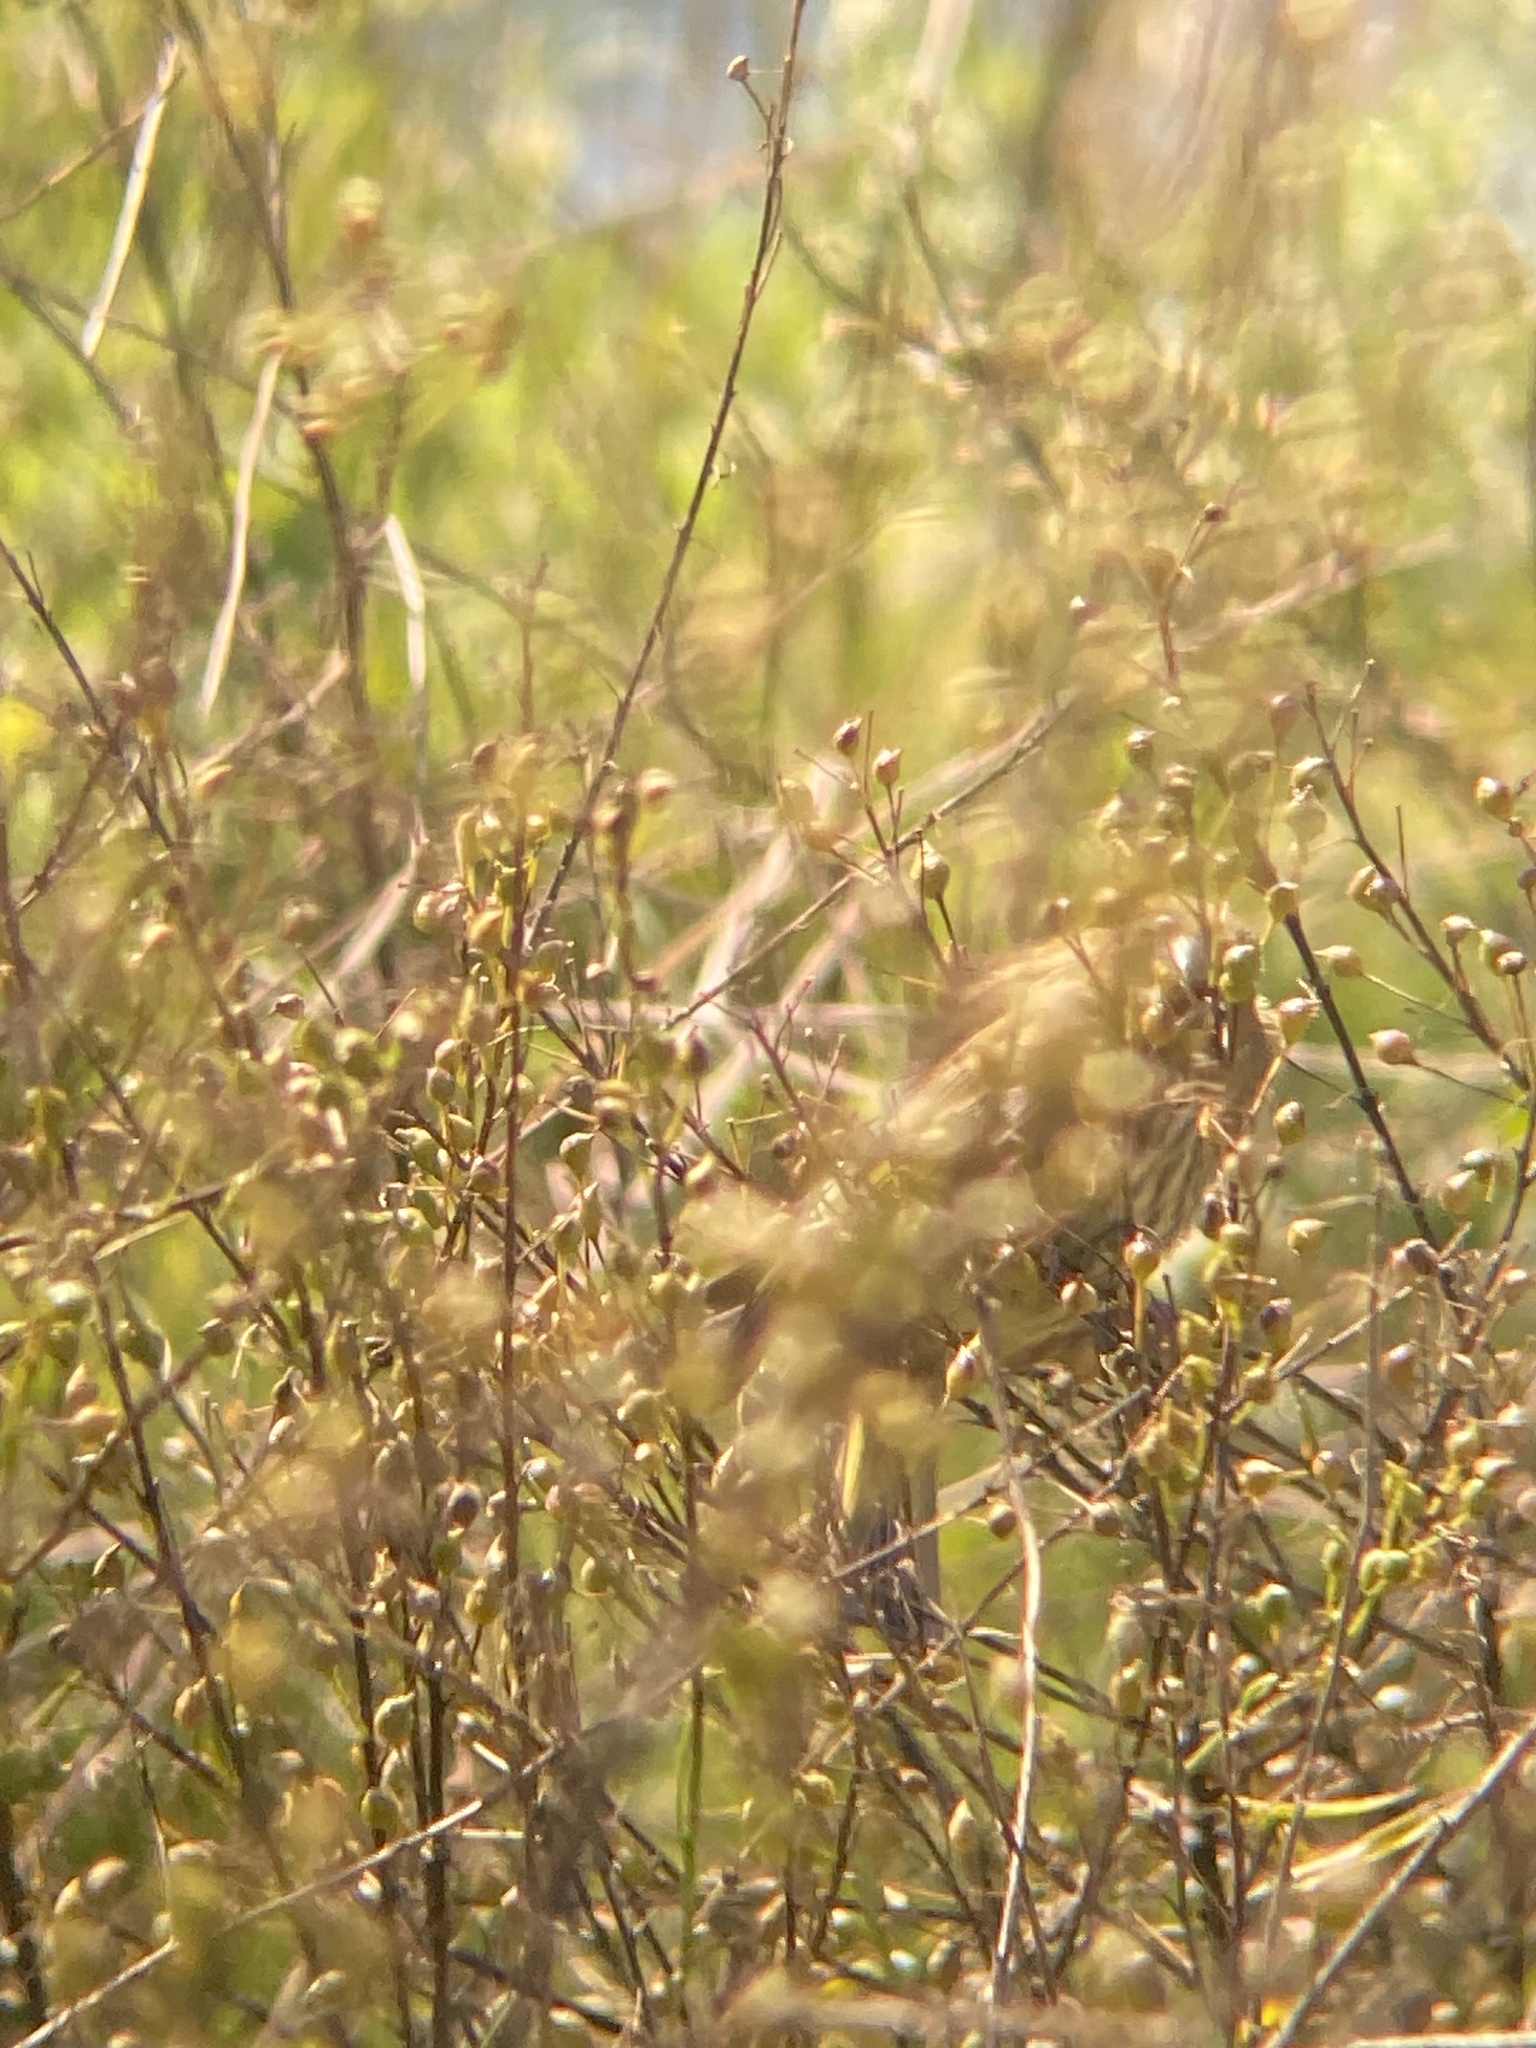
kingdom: Plantae
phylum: Tracheophyta
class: Liliopsida
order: Poales
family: Poaceae
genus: Chloris
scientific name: Chloris chloris
